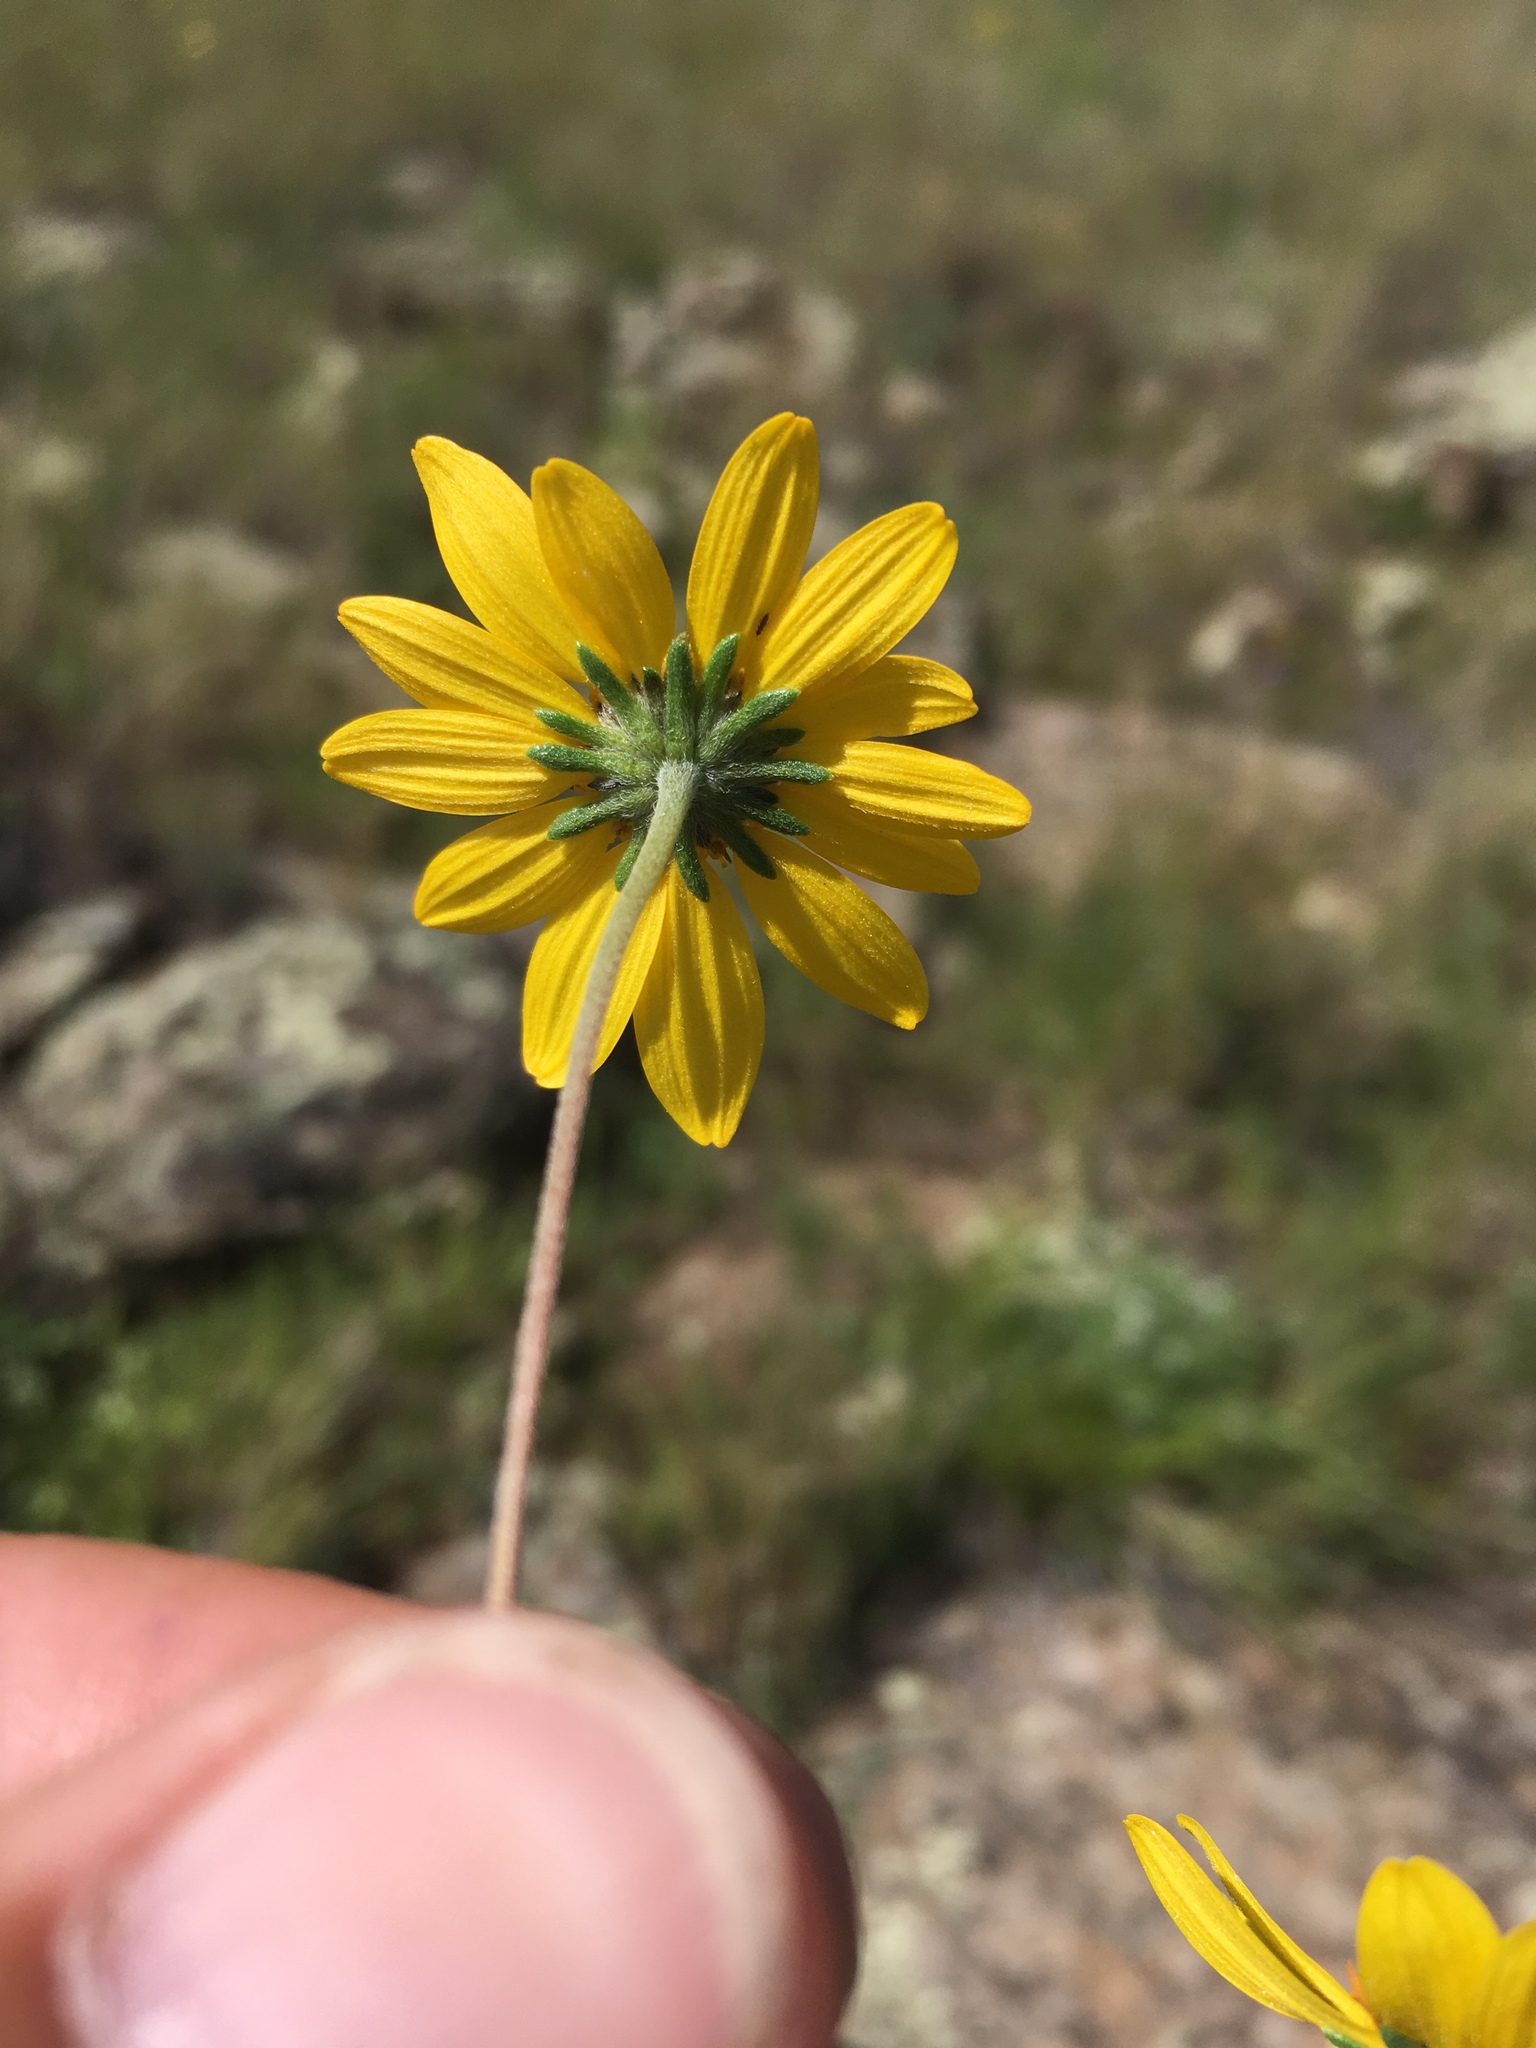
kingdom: Plantae
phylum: Tracheophyta
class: Magnoliopsida
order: Asterales
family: Asteraceae
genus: Heliomeris
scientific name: Heliomeris multiflora
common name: Showy goldeneye
